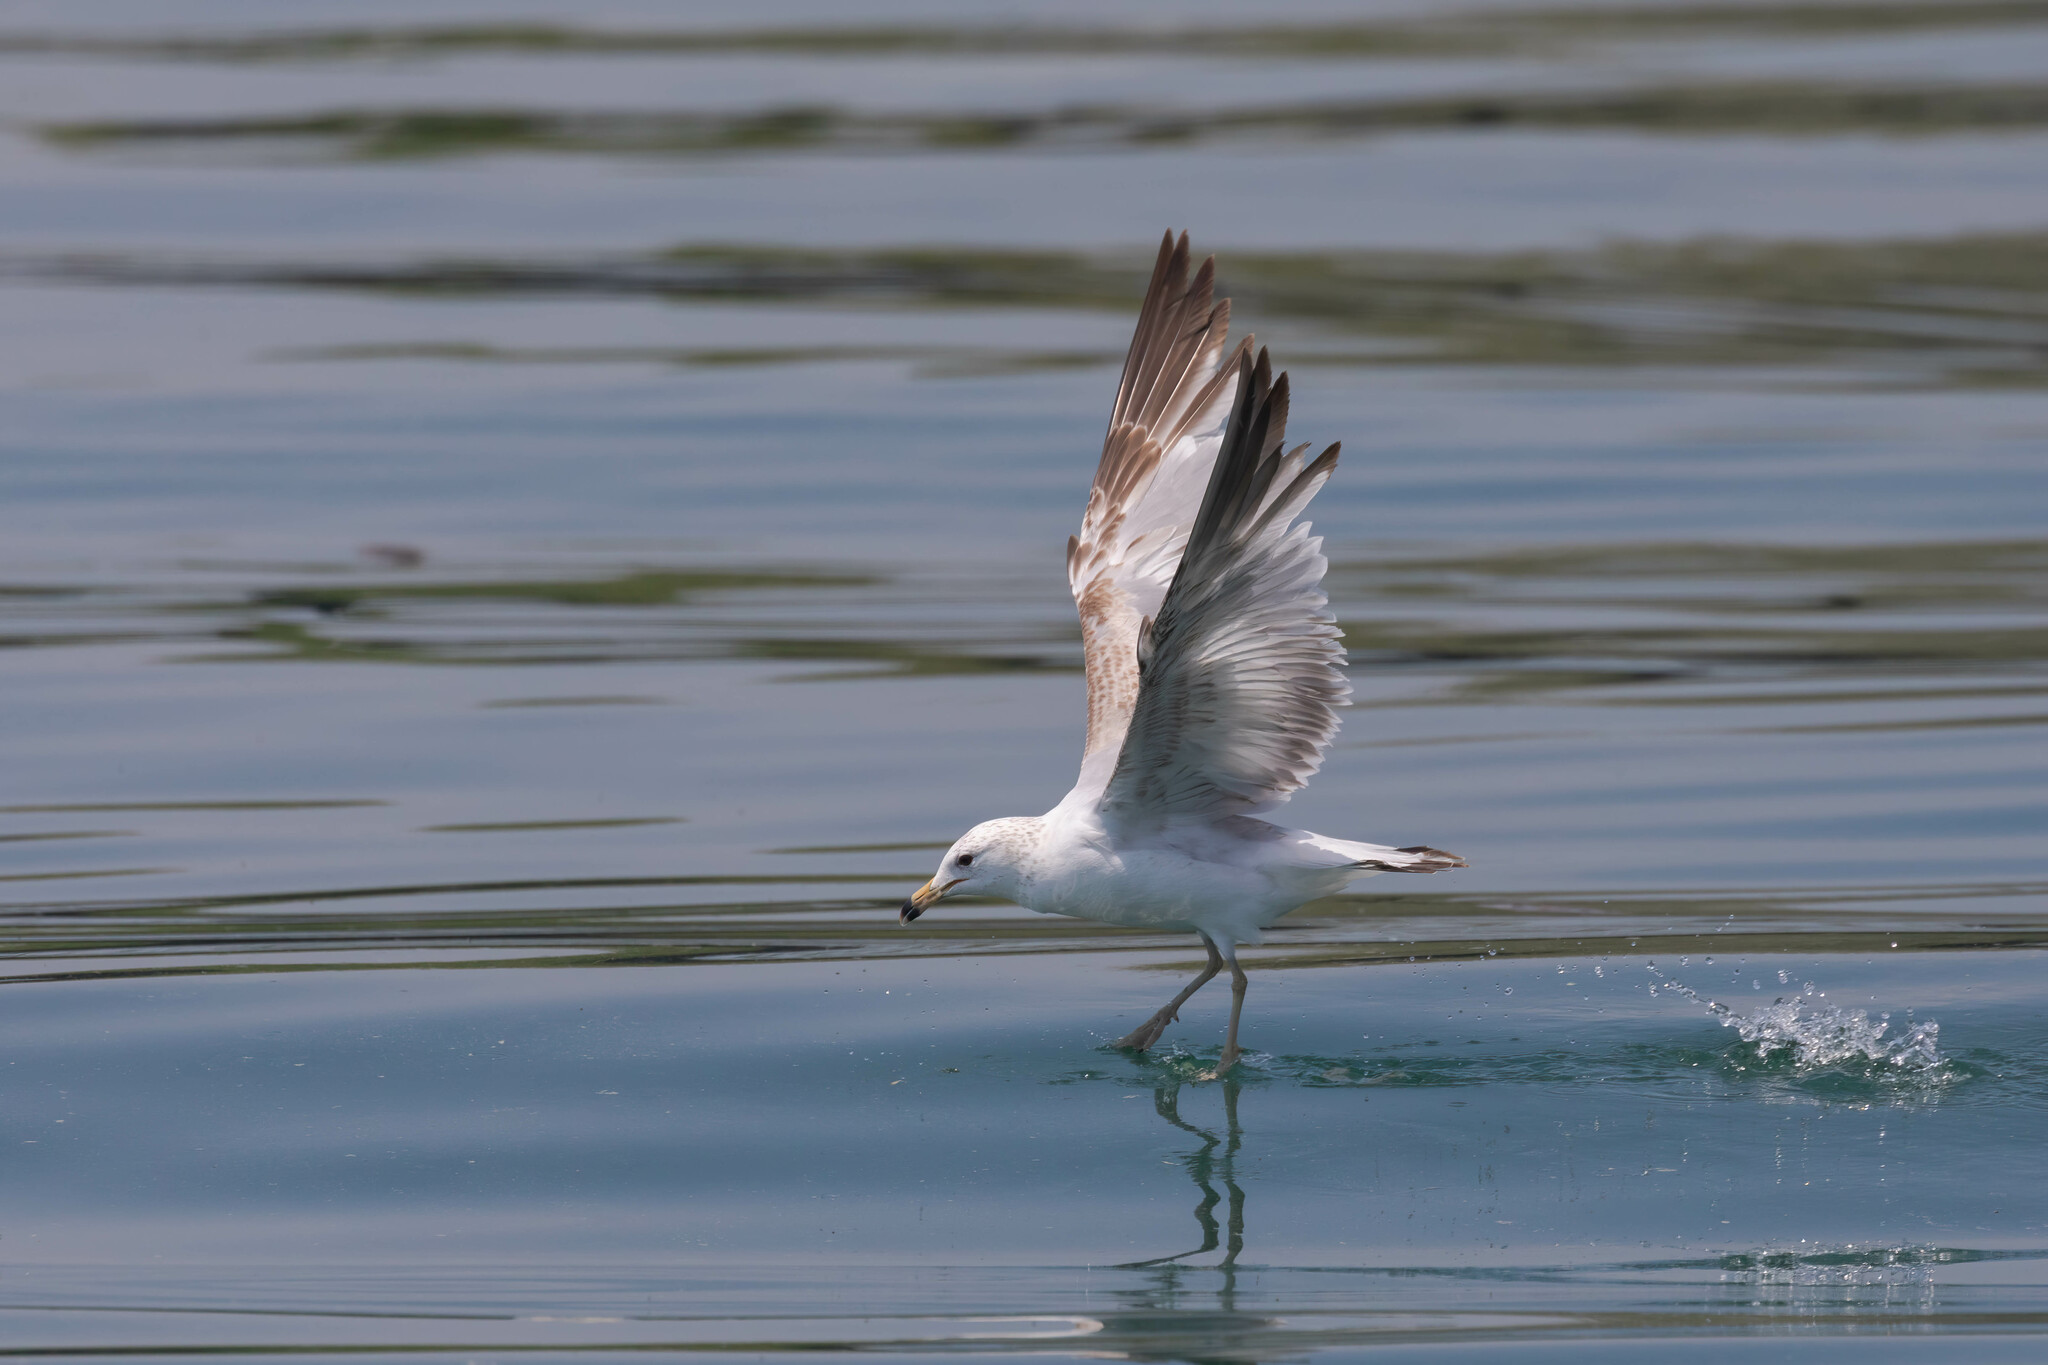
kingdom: Animalia
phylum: Chordata
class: Aves
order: Charadriiformes
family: Laridae
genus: Larus
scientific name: Larus delawarensis
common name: Ring-billed gull
